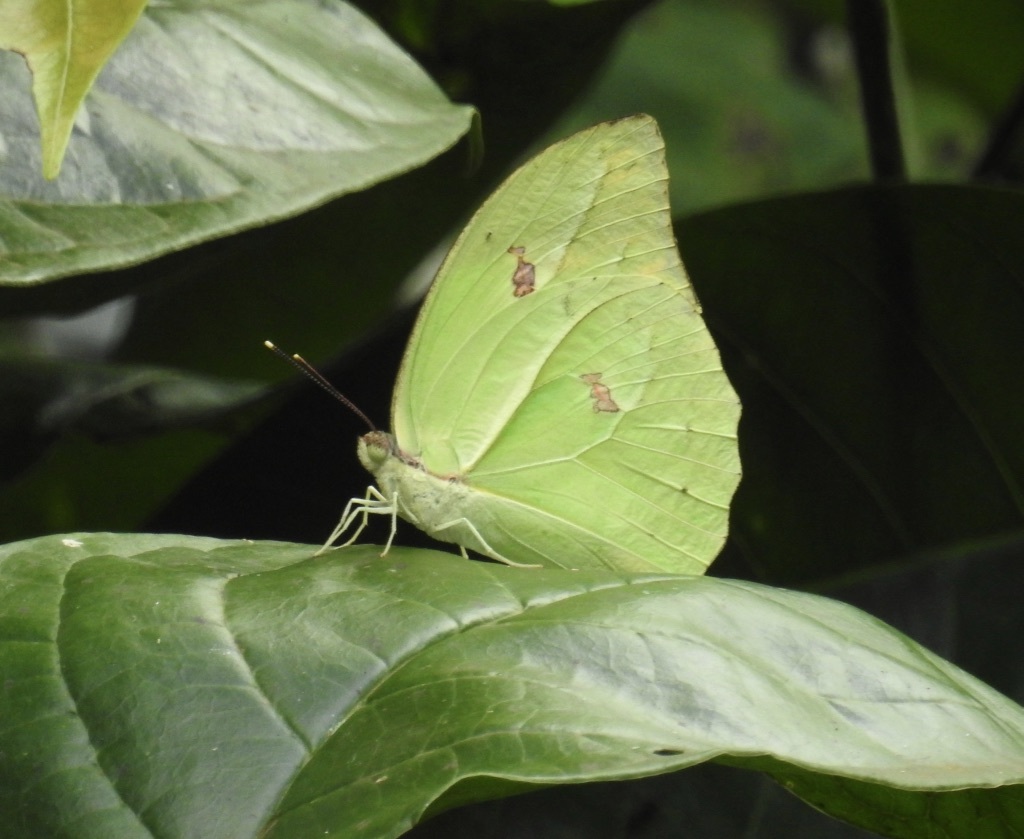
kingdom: Animalia
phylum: Arthropoda
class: Insecta
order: Lepidoptera
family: Pieridae
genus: Anteos
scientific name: Anteos menippe
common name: Orangetip angled-sulphur
